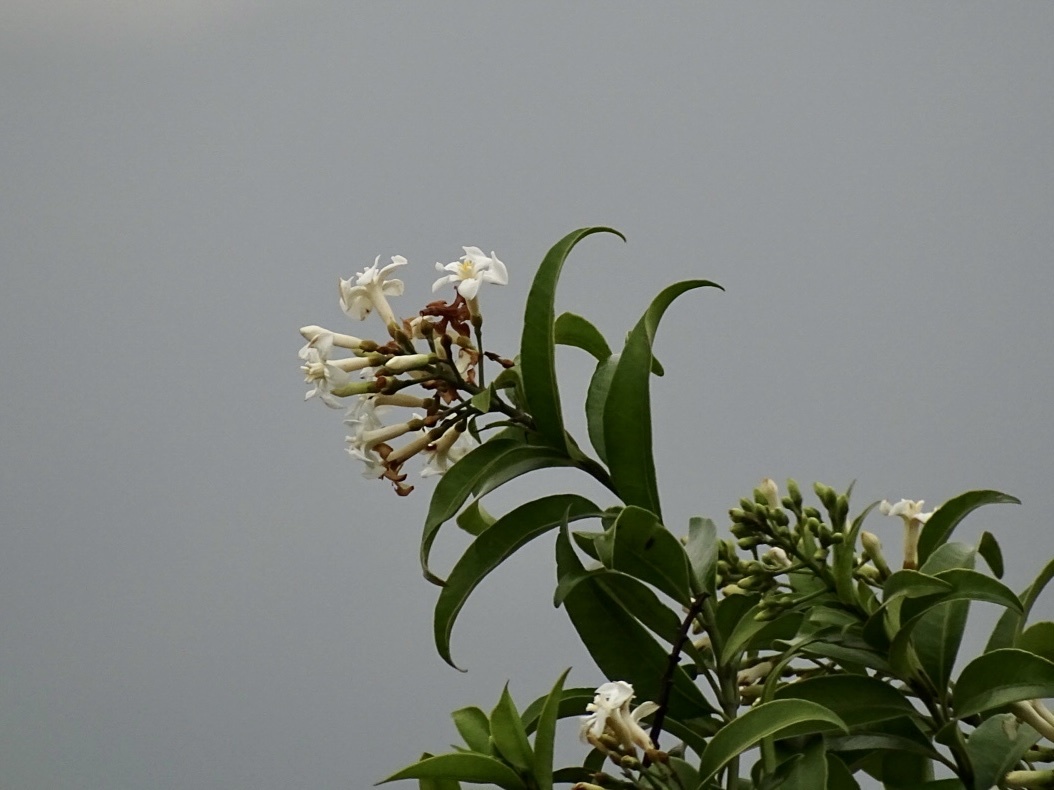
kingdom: Plantae
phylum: Tracheophyta
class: Magnoliopsida
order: Gentianales
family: Apocynaceae
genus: Melodinus
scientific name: Melodinus suaveolens
